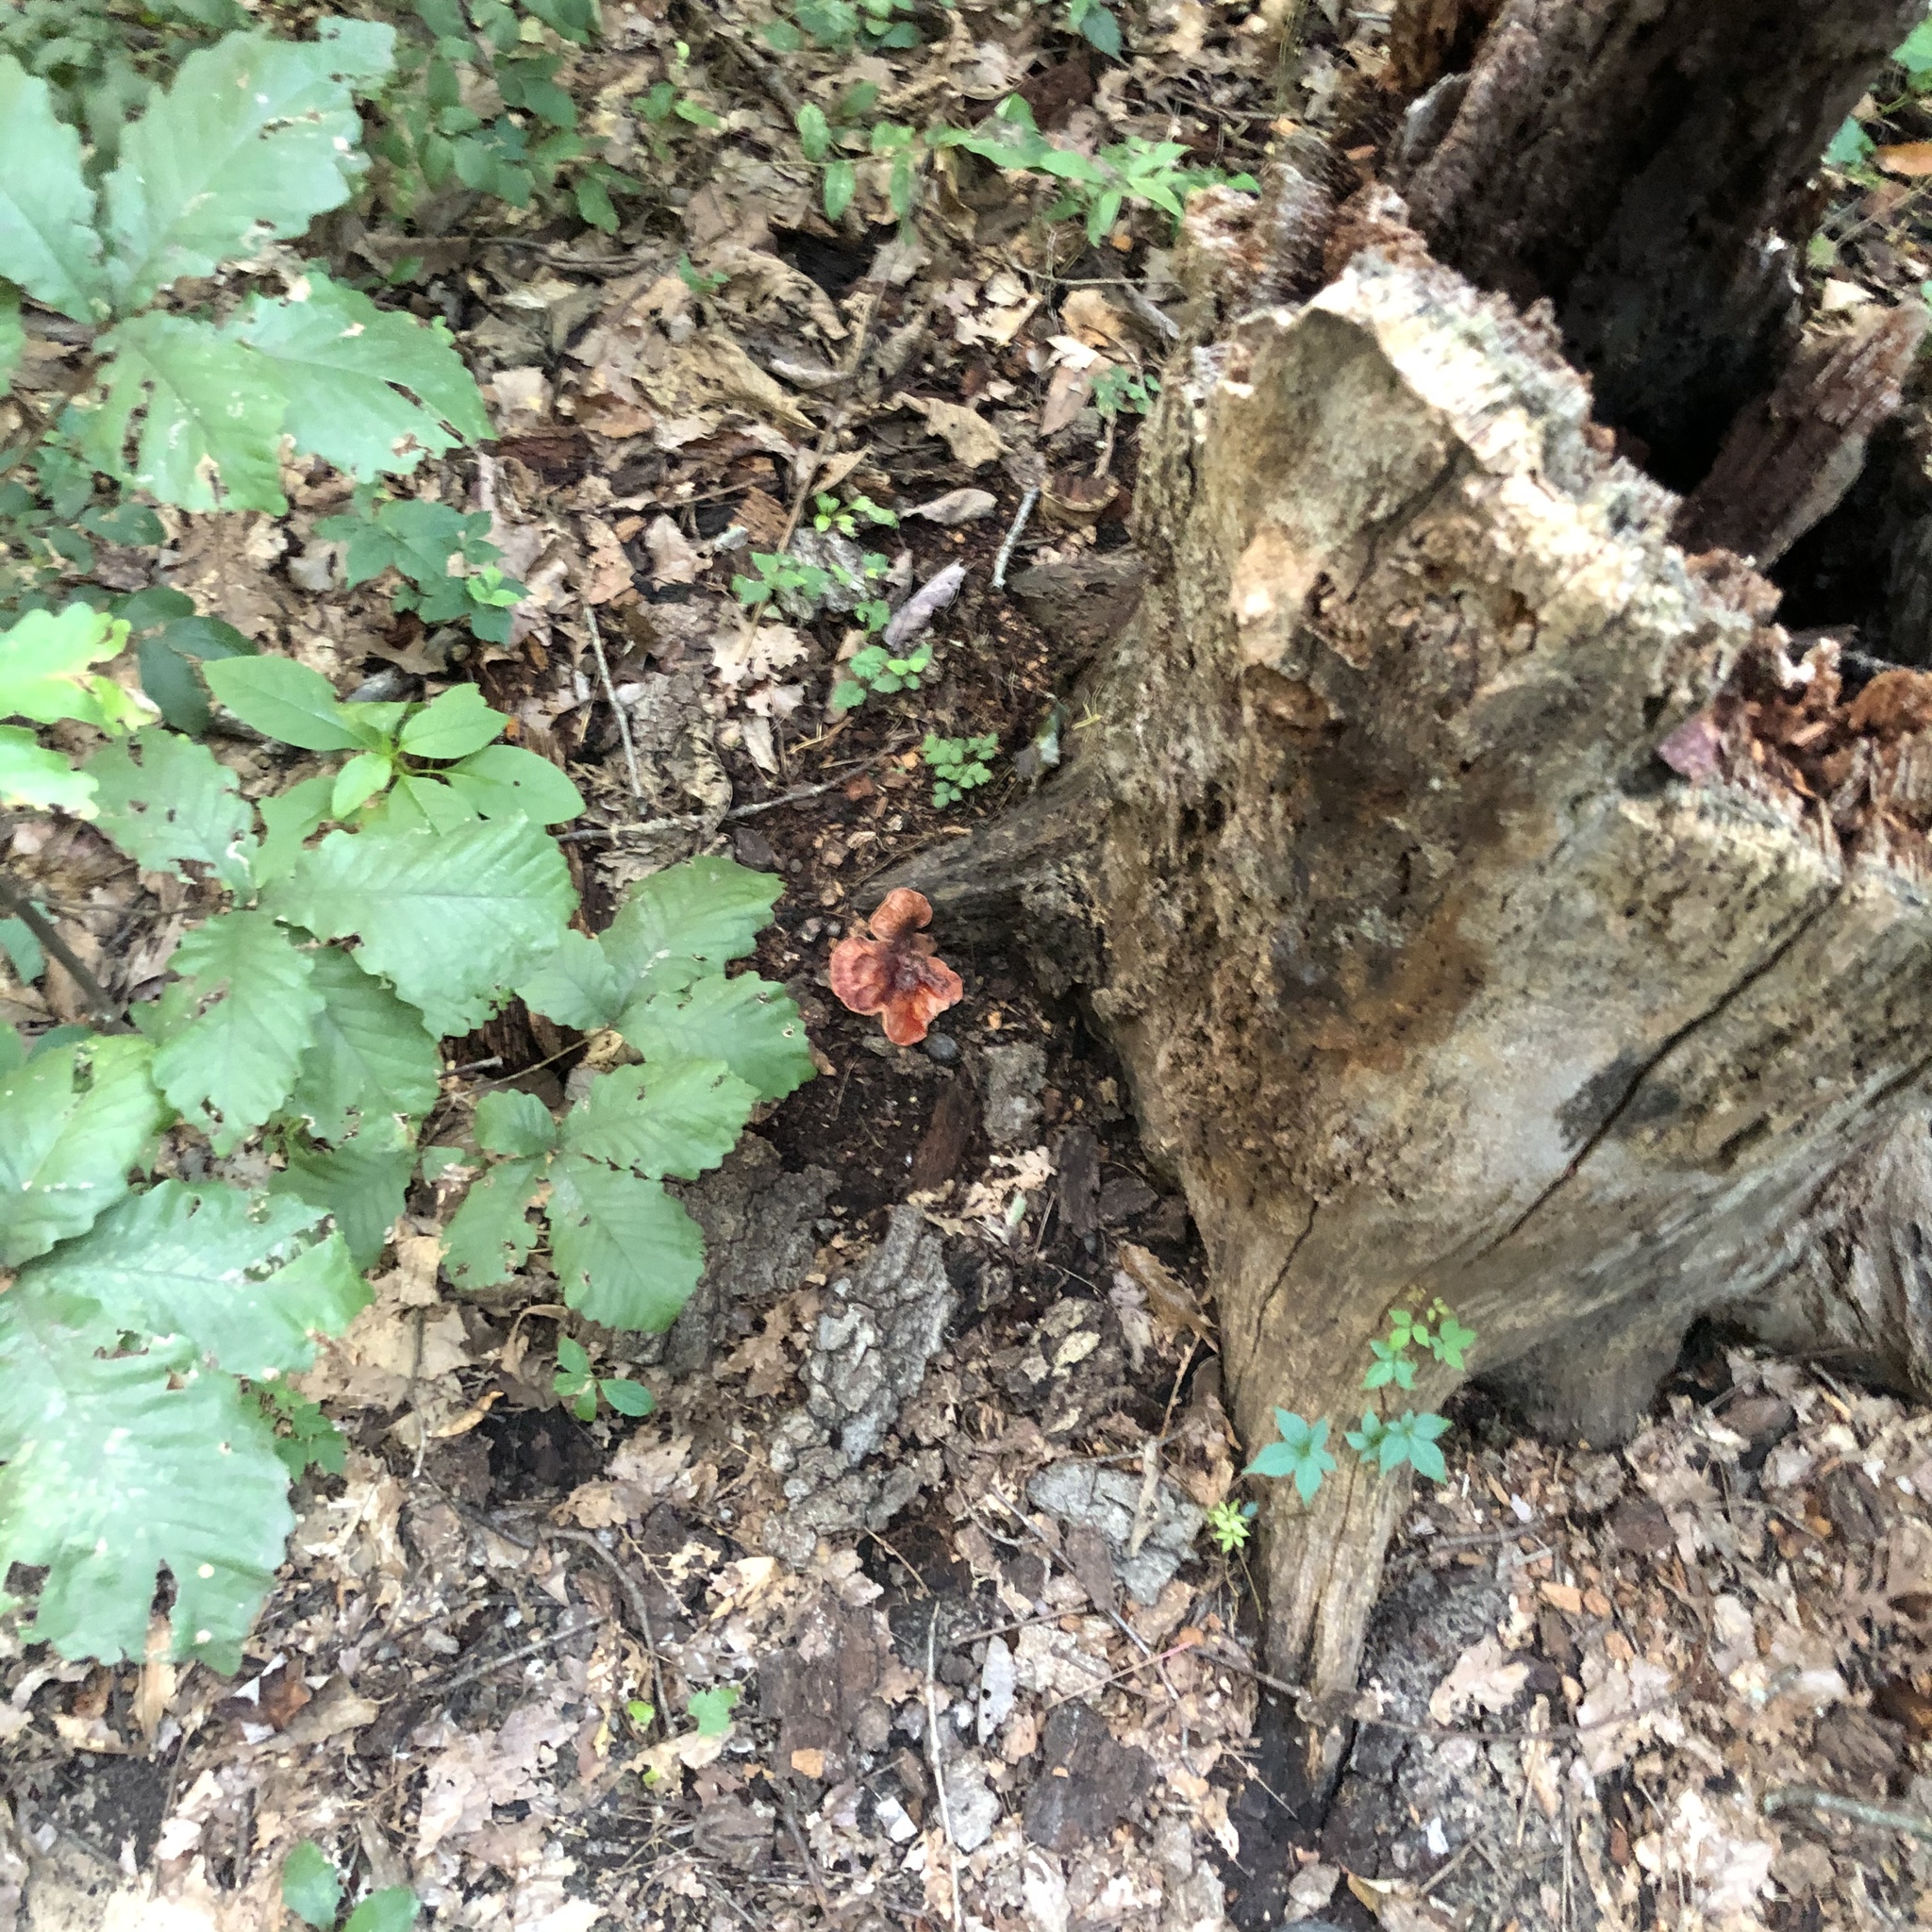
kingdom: Fungi
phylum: Basidiomycota
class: Agaricomycetes
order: Agaricales
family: Fistulinaceae
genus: Fistulina
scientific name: Fistulina hepatica
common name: Beef-steak fungus
